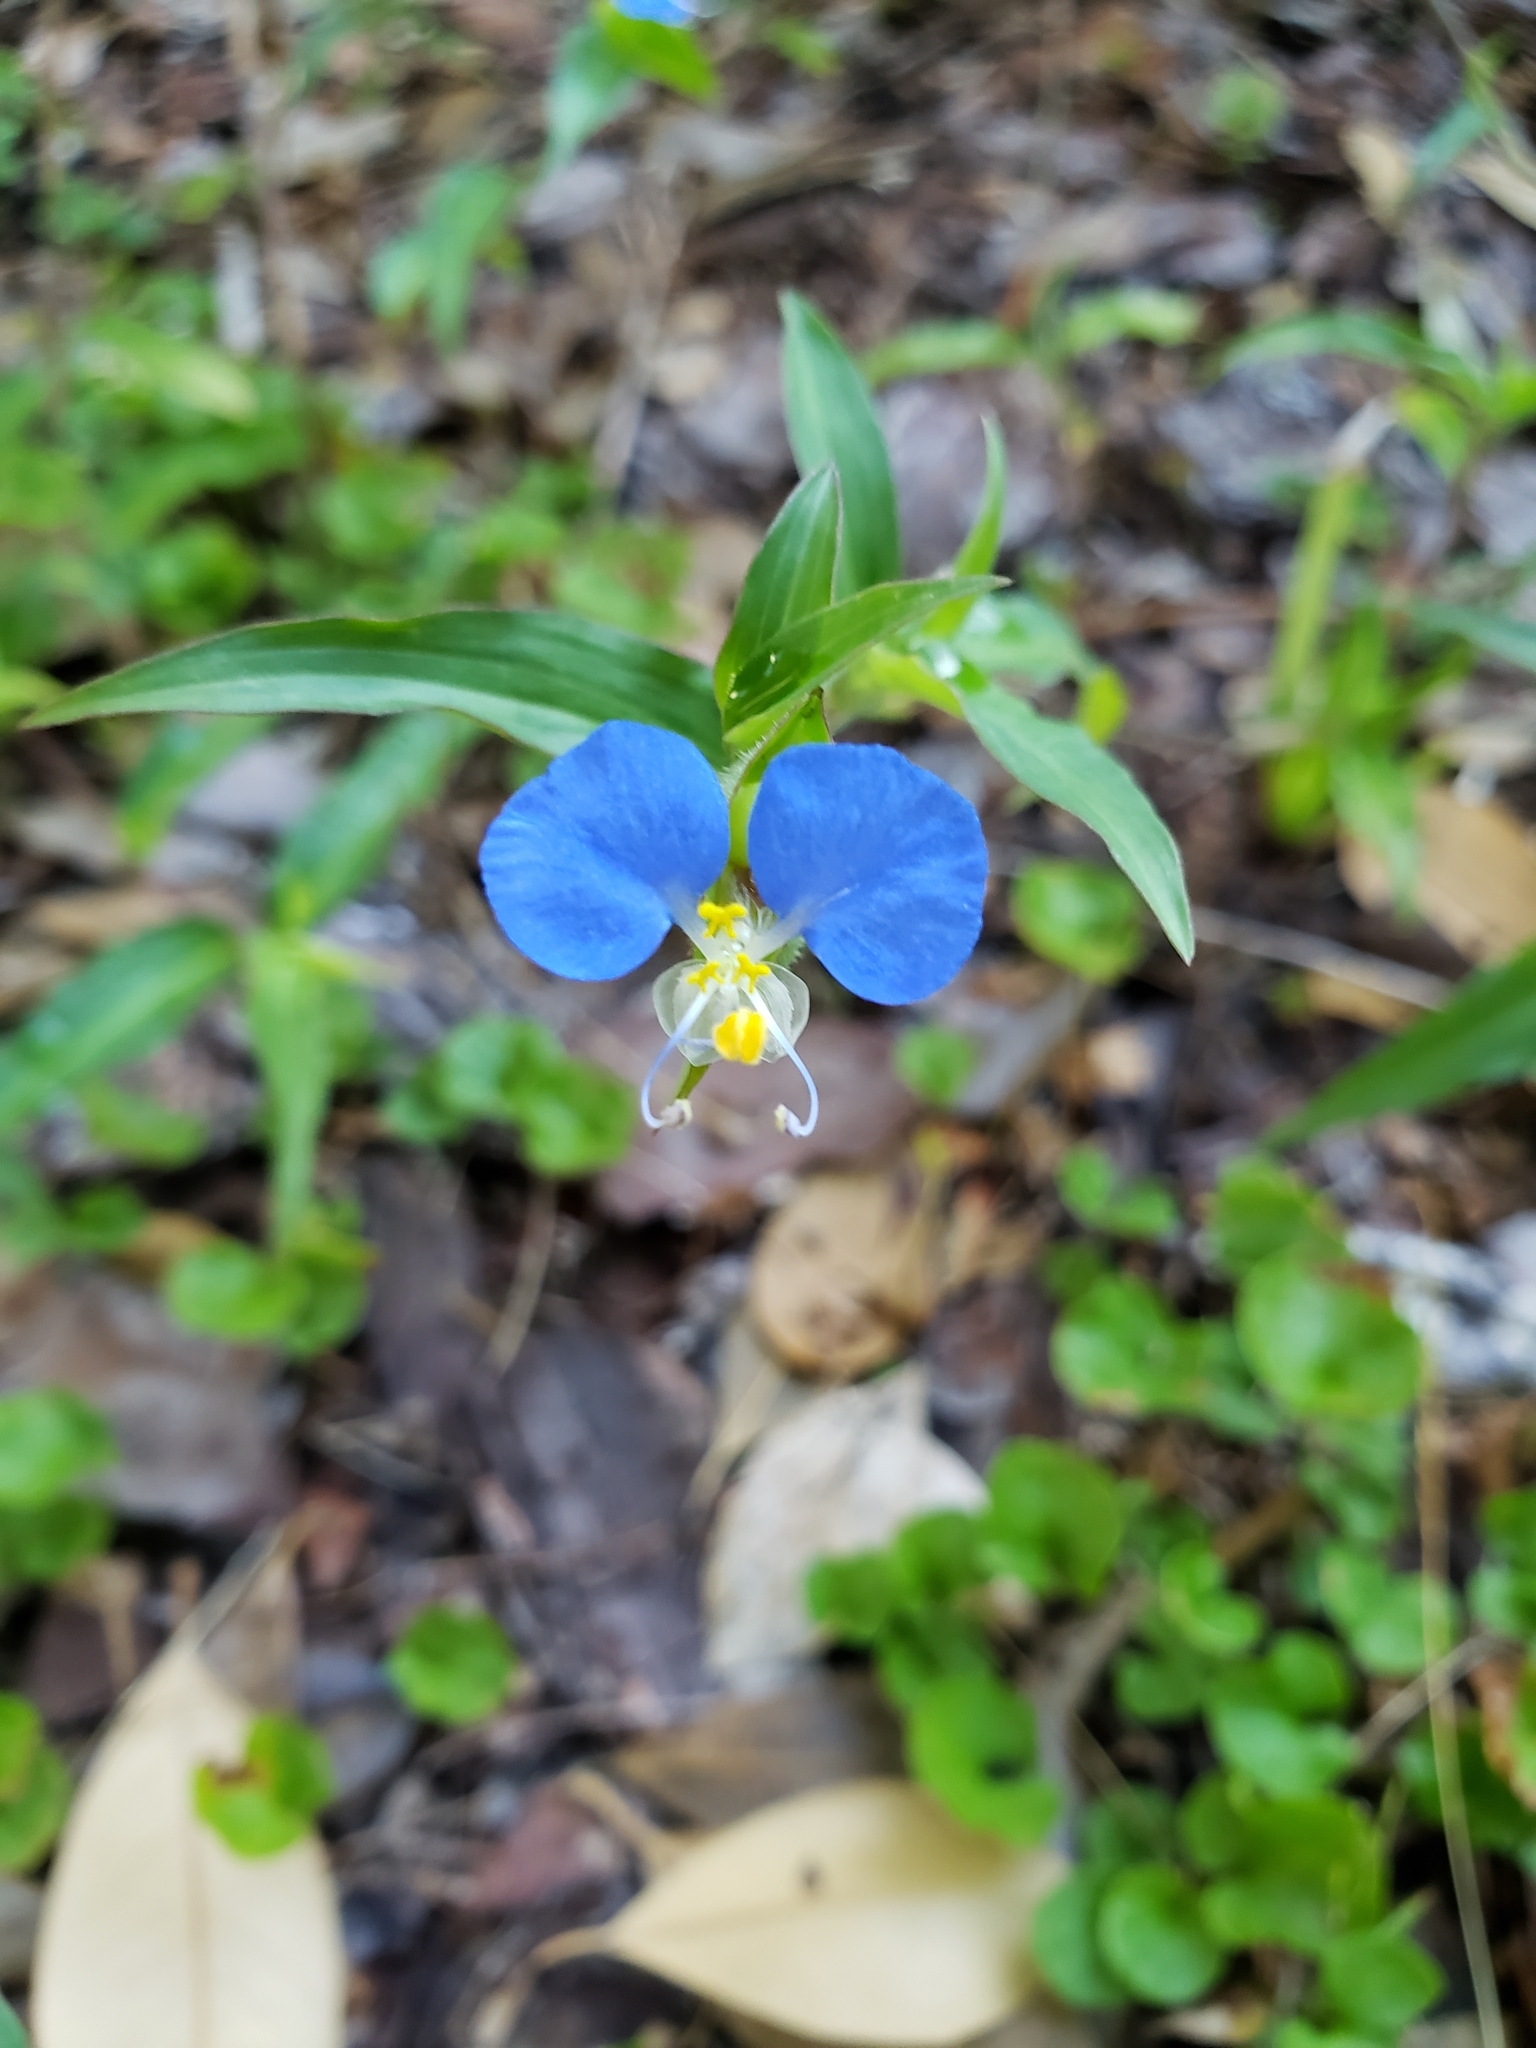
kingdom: Plantae
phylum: Tracheophyta
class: Liliopsida
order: Commelinales
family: Commelinaceae
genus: Commelina
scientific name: Commelina erecta
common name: Blousel blommetjie
